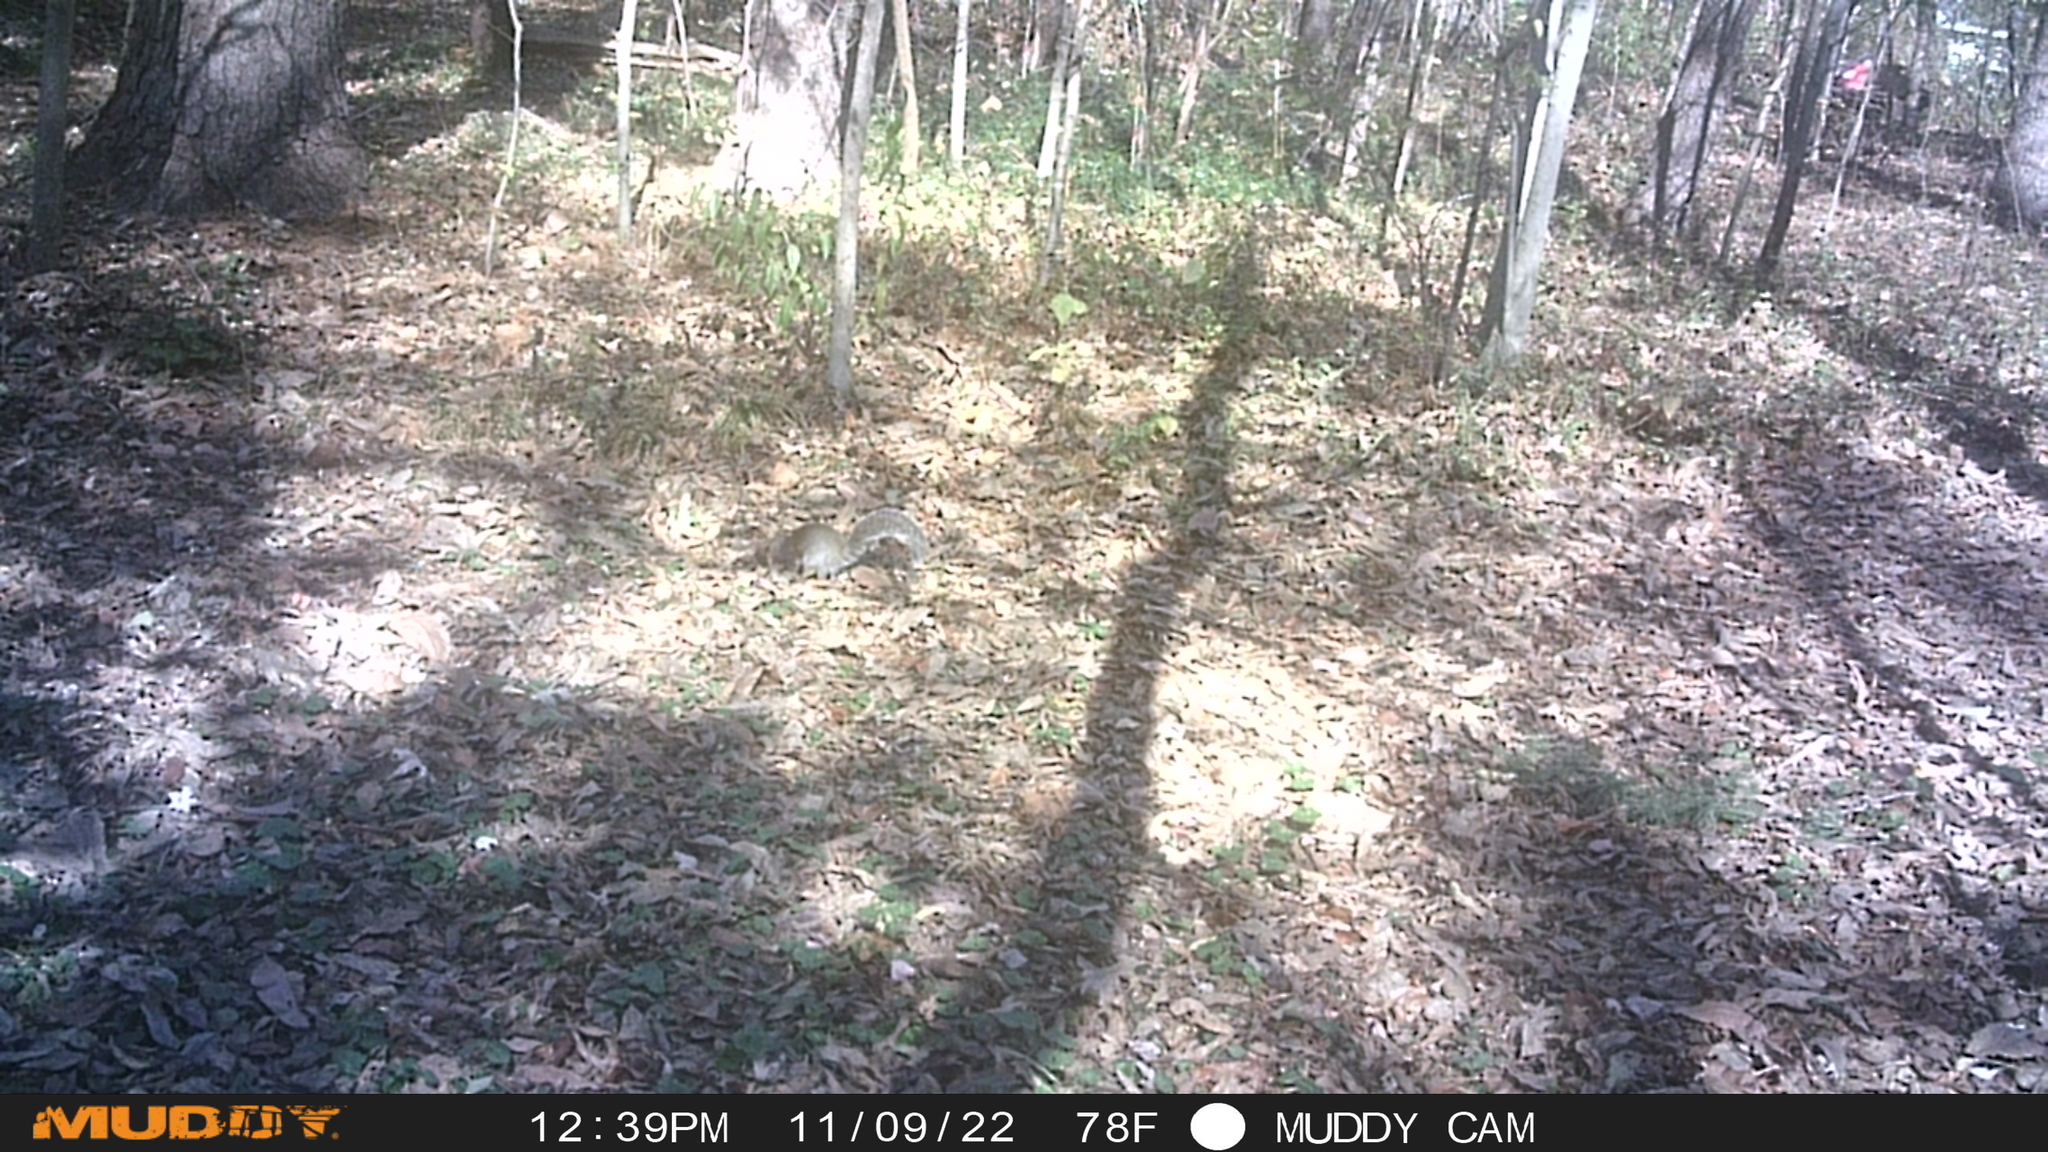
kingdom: Animalia
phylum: Chordata
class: Mammalia
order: Rodentia
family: Sciuridae
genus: Sciurus
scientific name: Sciurus carolinensis
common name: Eastern gray squirrel
